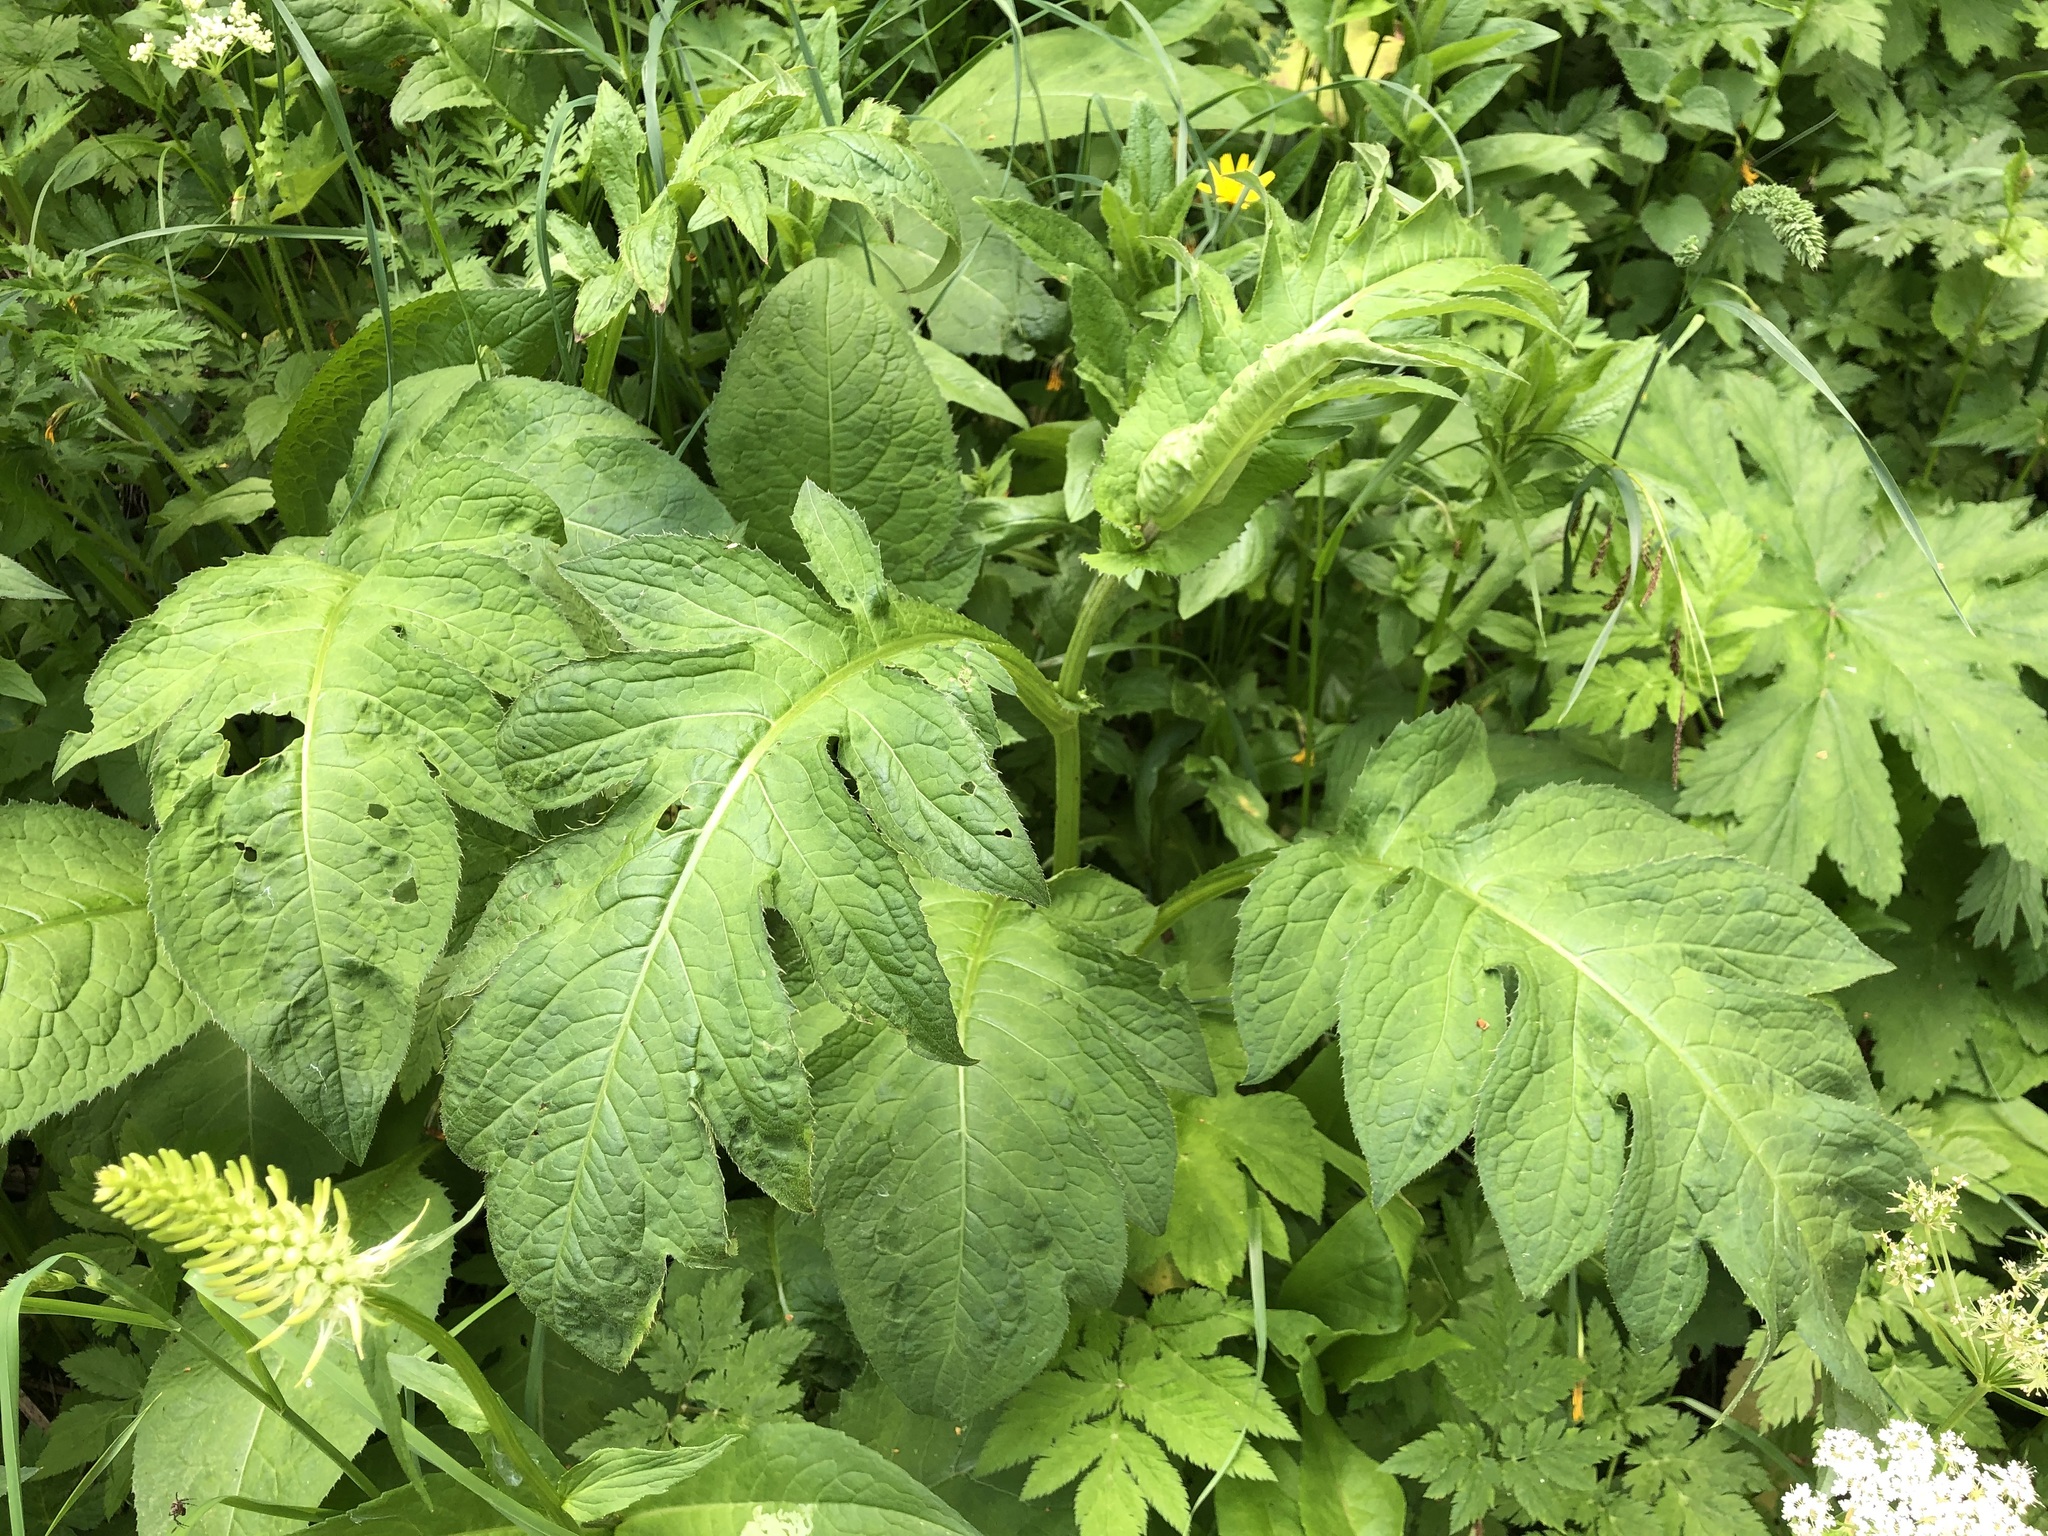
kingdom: Plantae
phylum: Tracheophyta
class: Magnoliopsida
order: Asterales
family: Asteraceae
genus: Cirsium
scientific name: Cirsium oleraceum
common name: Cabbage thistle
